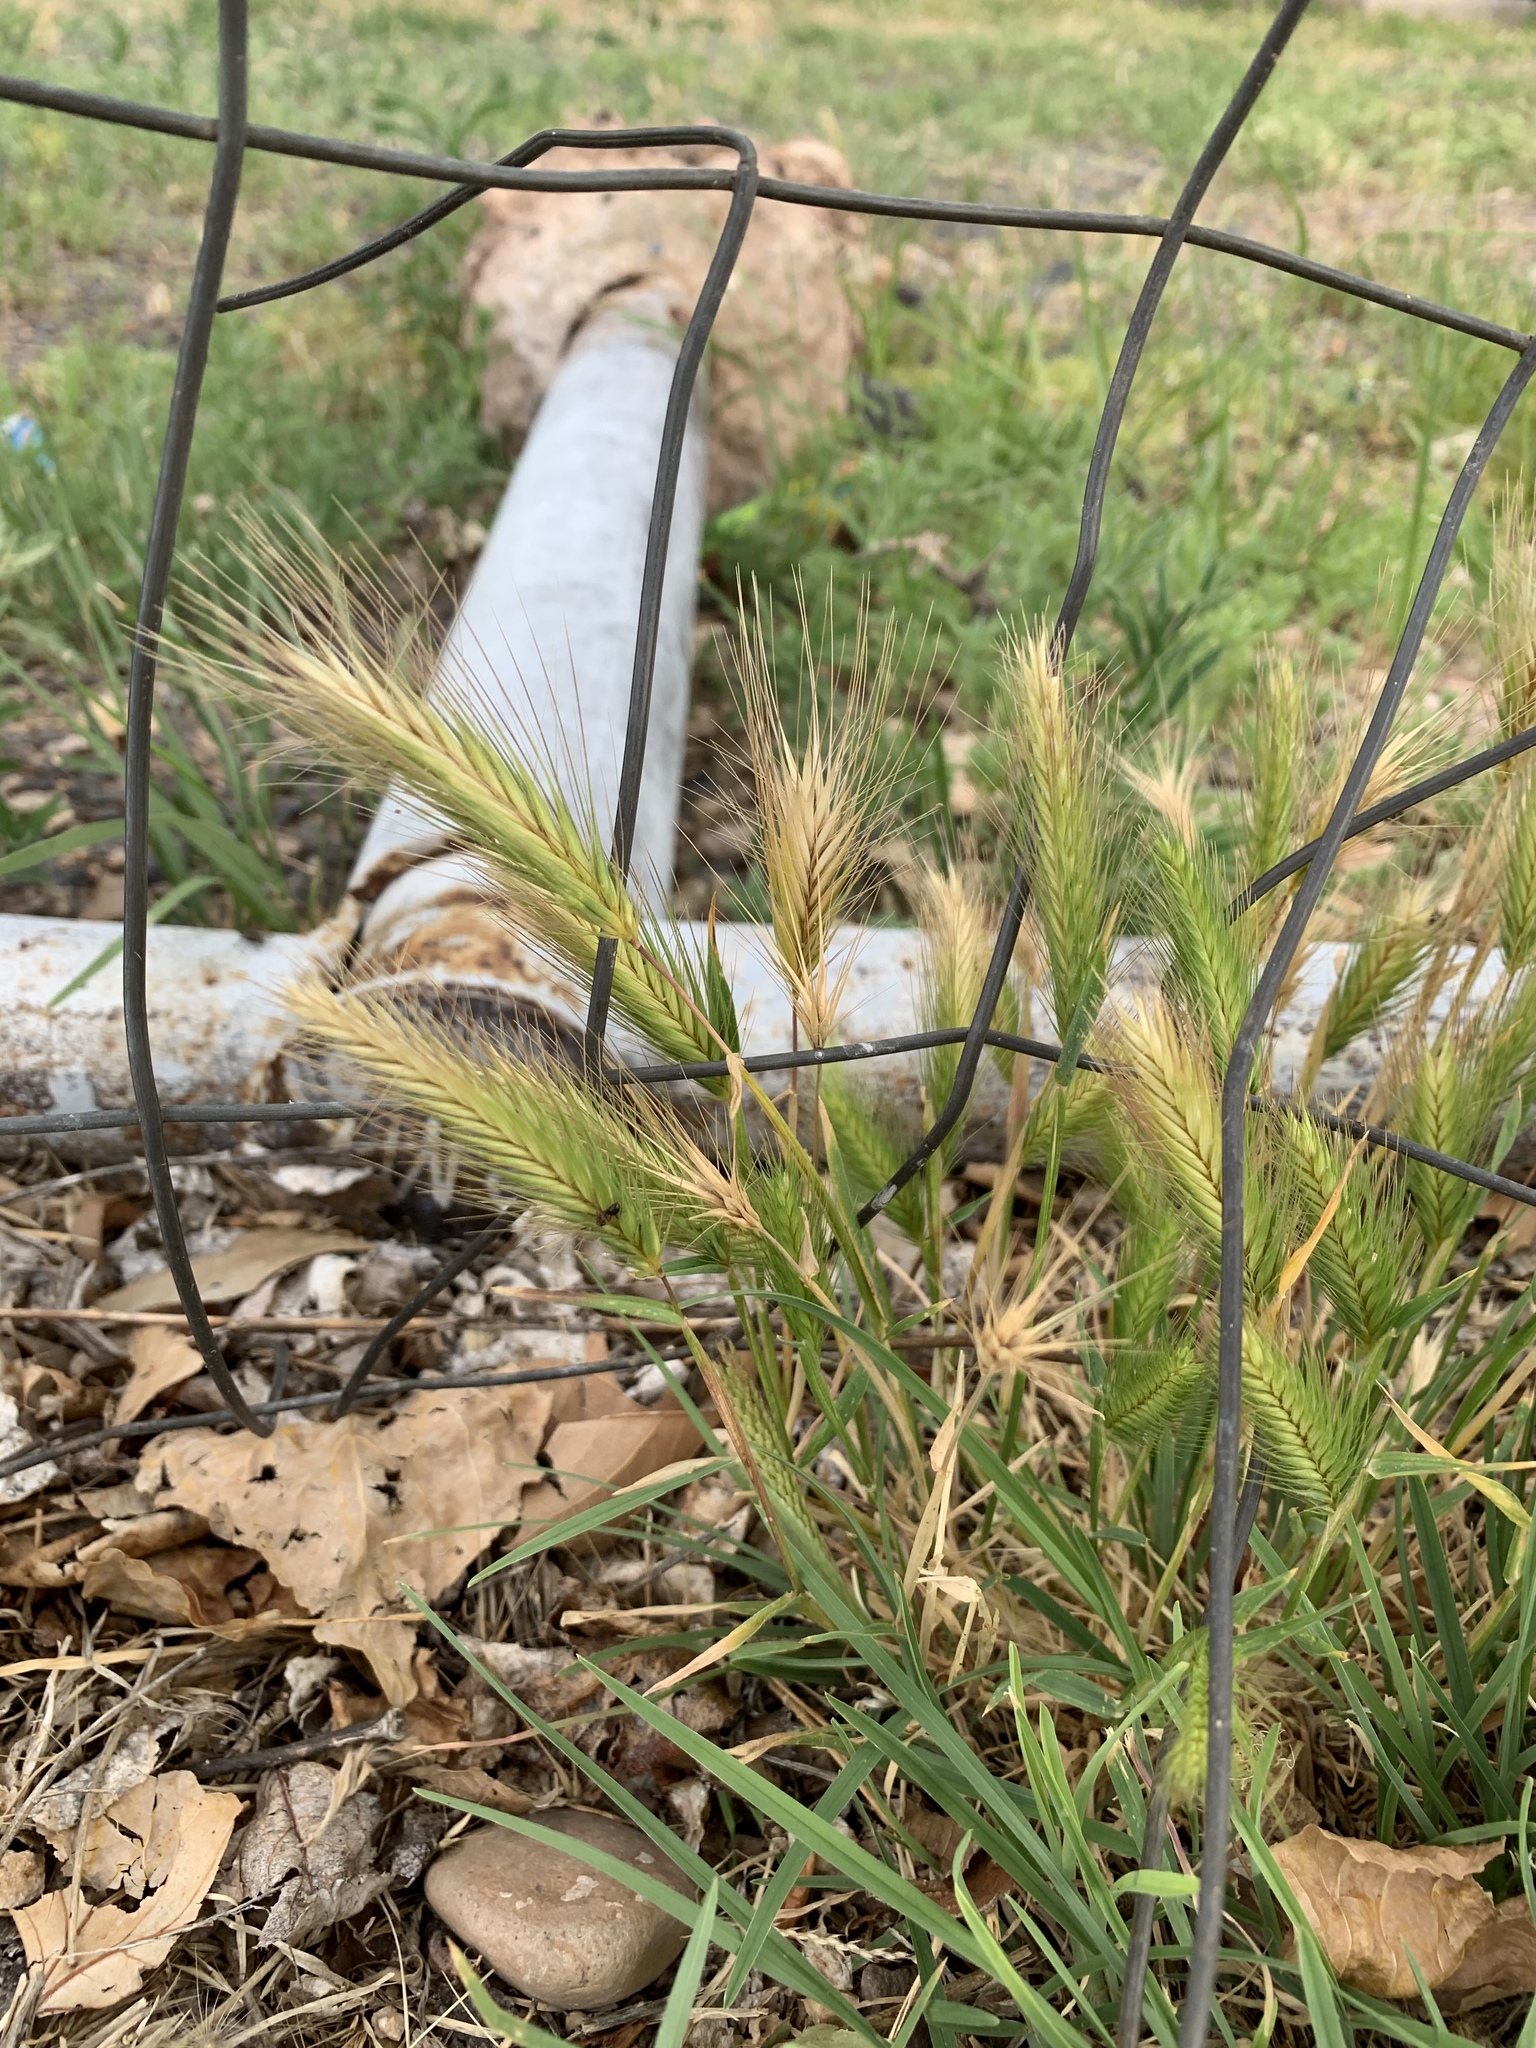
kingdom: Plantae
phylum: Tracheophyta
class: Liliopsida
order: Poales
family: Poaceae
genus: Hordeum
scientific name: Hordeum murinum
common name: Wall barley
